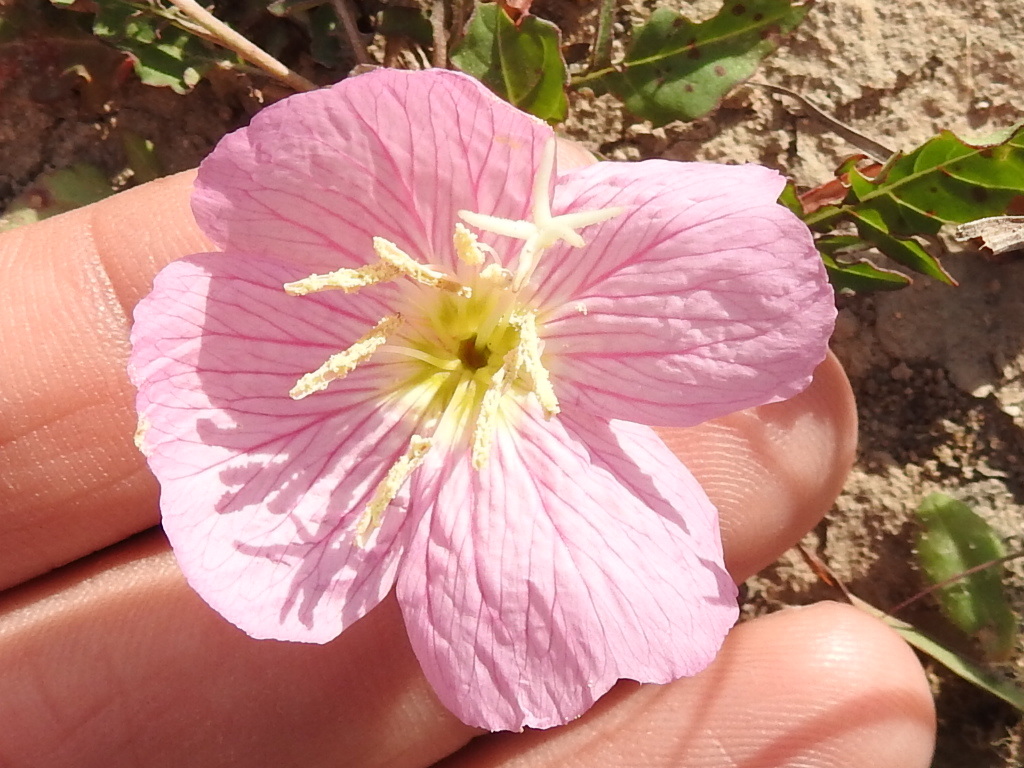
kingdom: Plantae
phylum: Tracheophyta
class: Magnoliopsida
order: Myrtales
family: Onagraceae
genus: Oenothera
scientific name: Oenothera speciosa
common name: White evening-primrose
